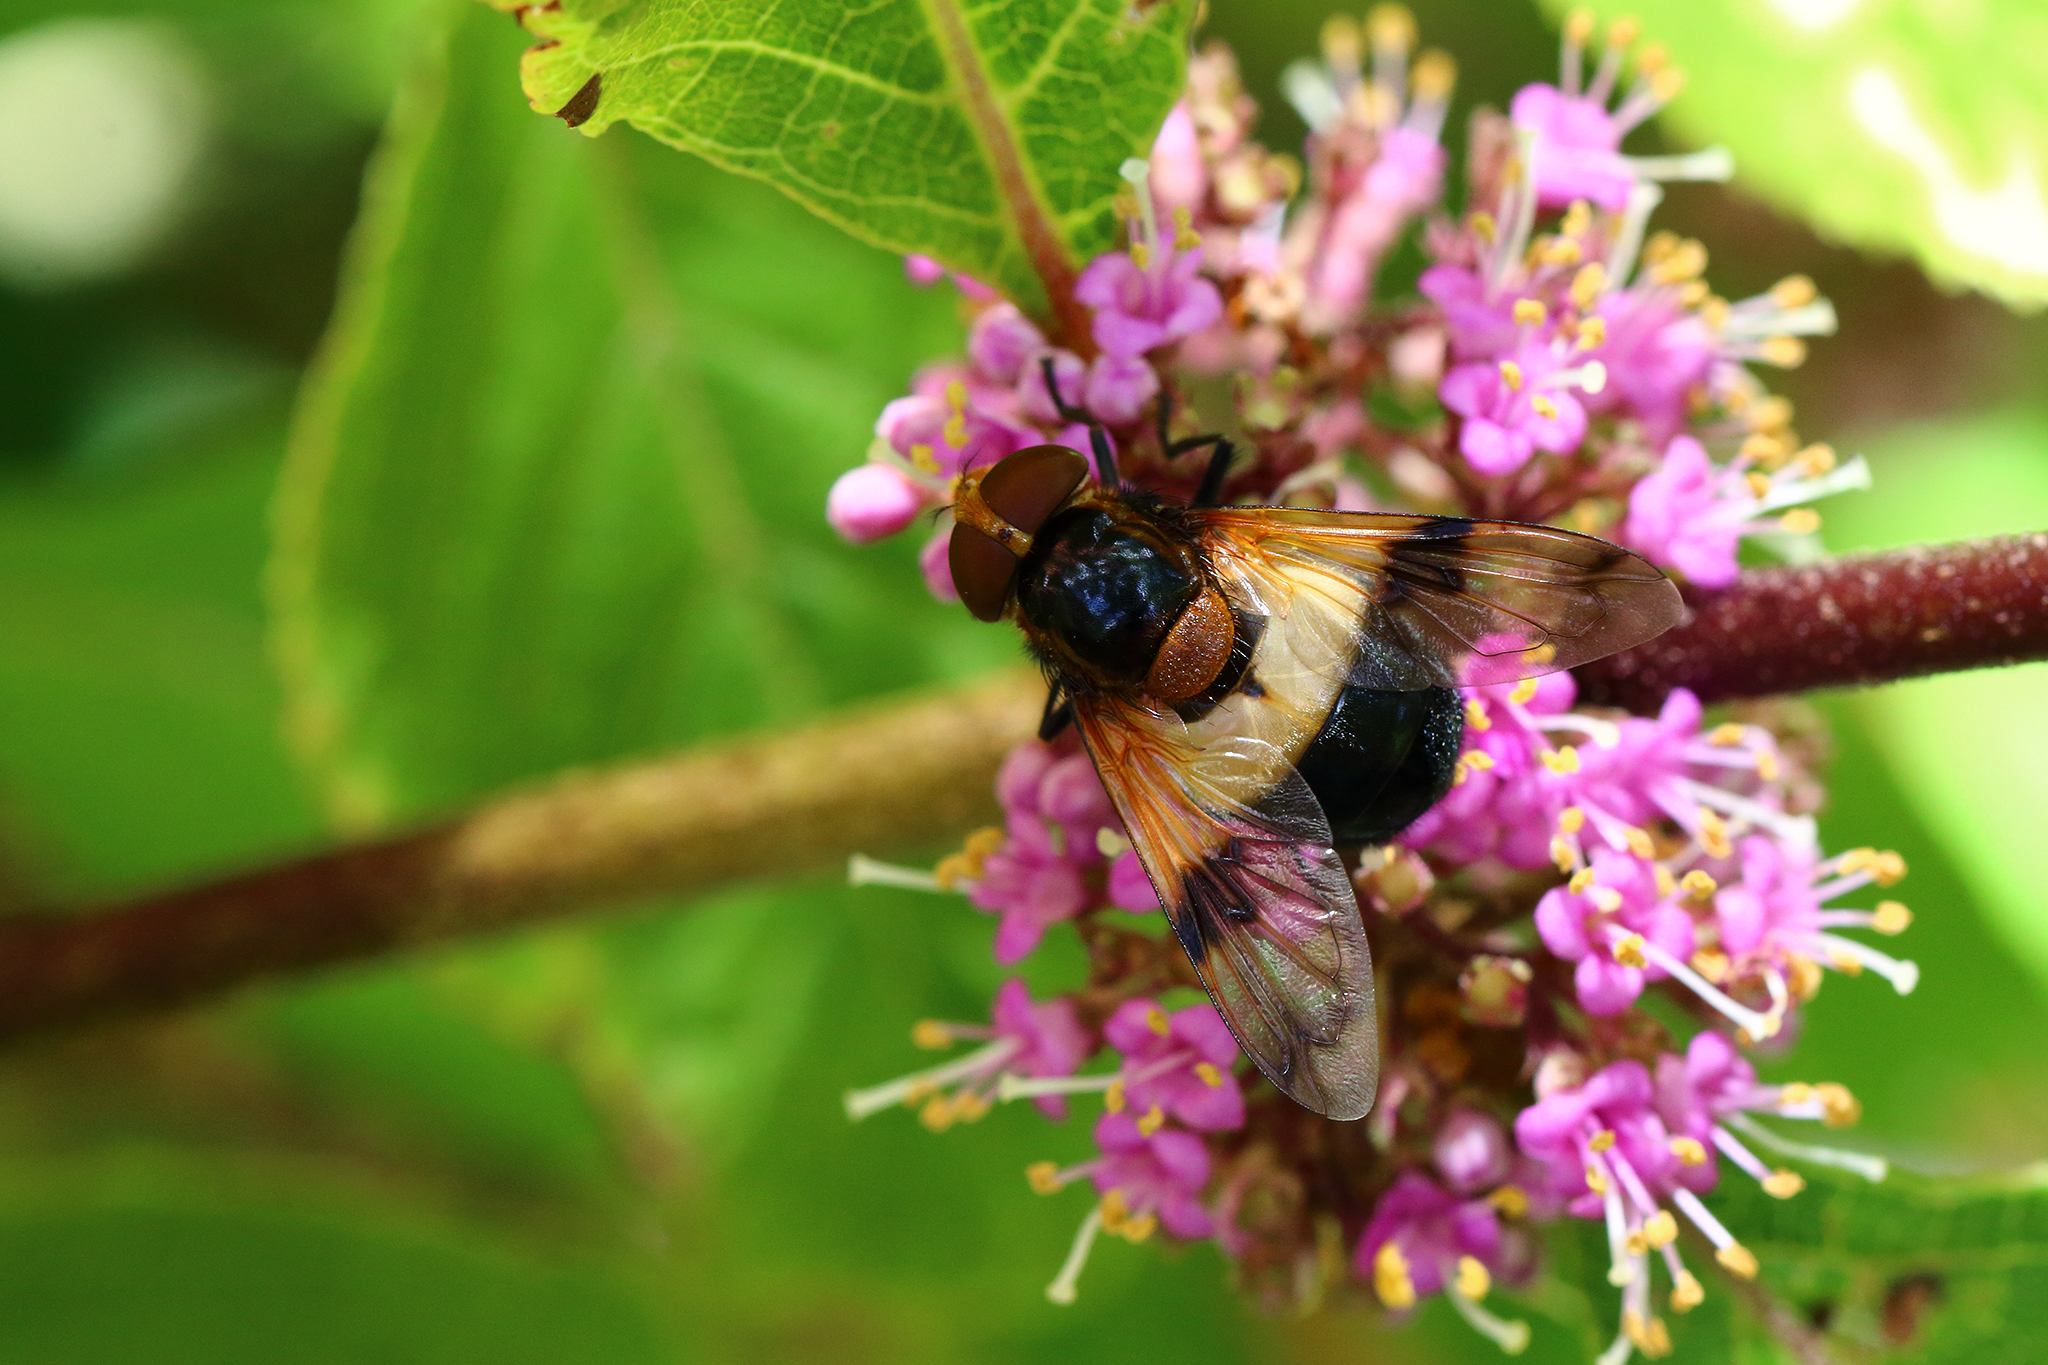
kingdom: Animalia
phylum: Arthropoda
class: Insecta
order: Diptera
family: Syrphidae
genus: Volucella
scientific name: Volucella pellucens
